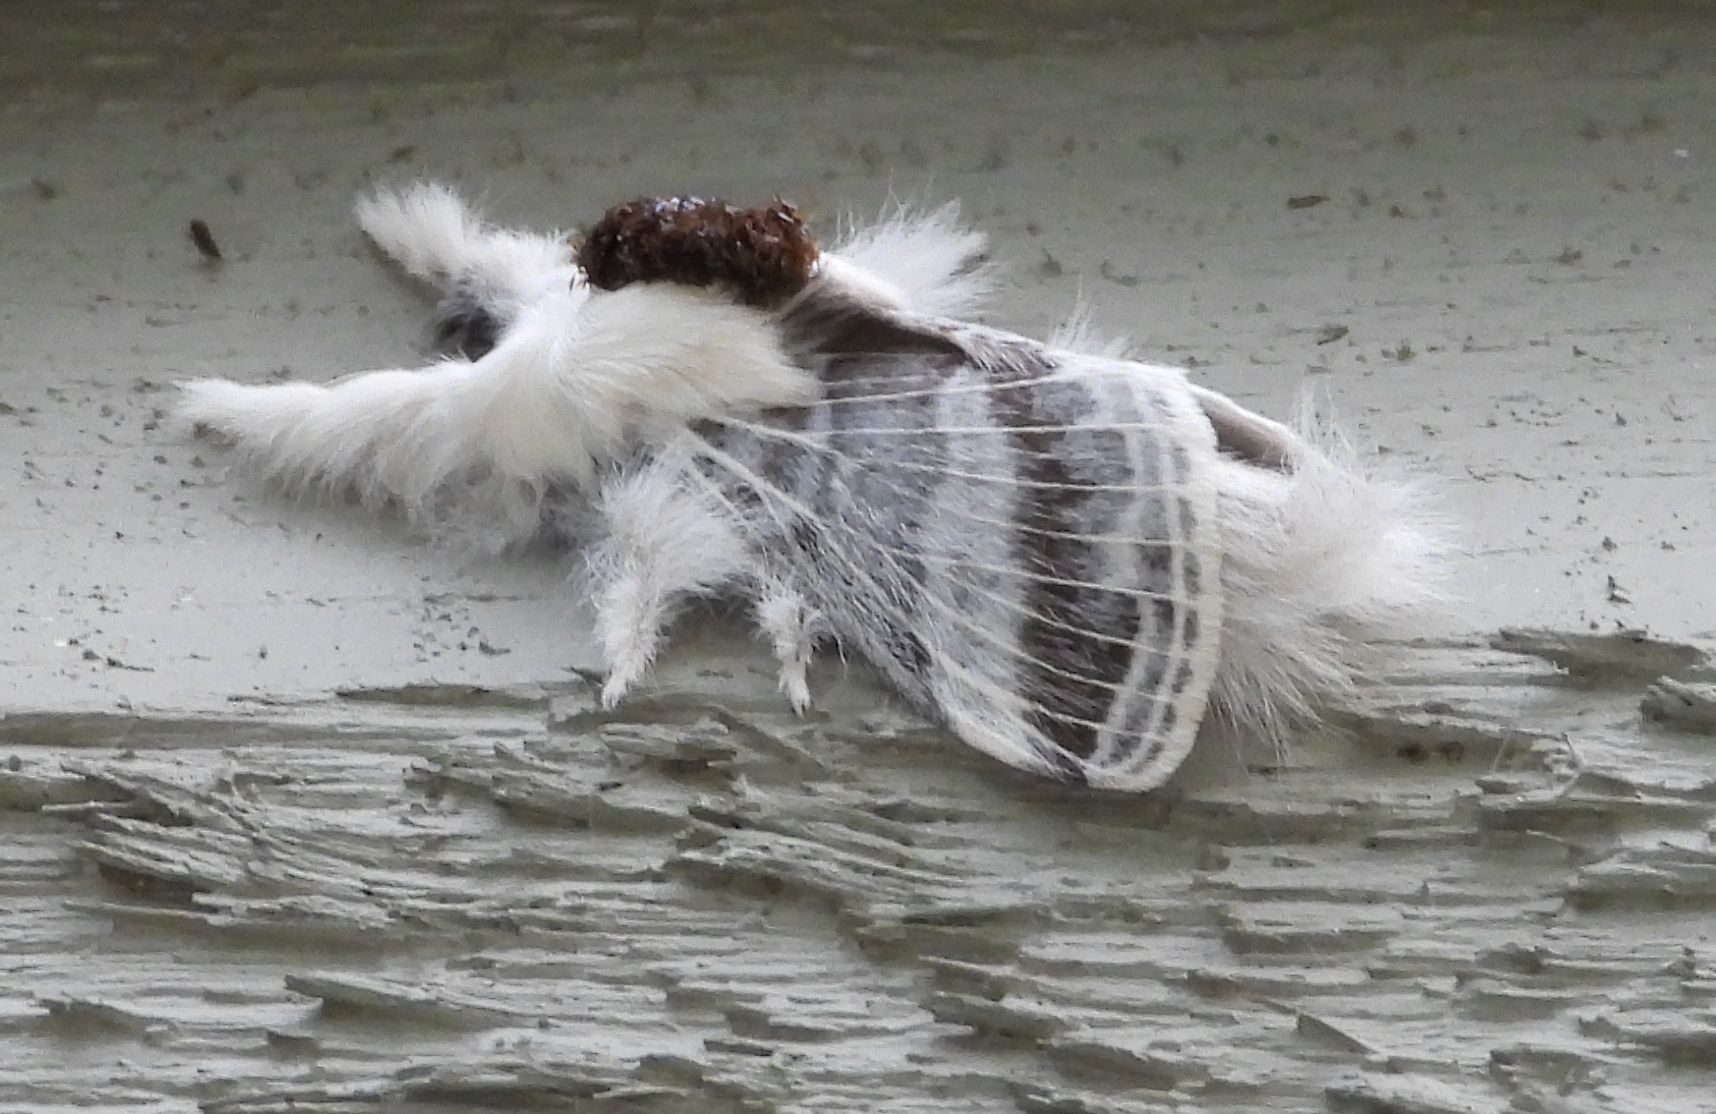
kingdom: Animalia
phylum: Arthropoda
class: Insecta
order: Lepidoptera
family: Lasiocampidae
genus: Tolype
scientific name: Tolype velleda
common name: Large tolype moth
